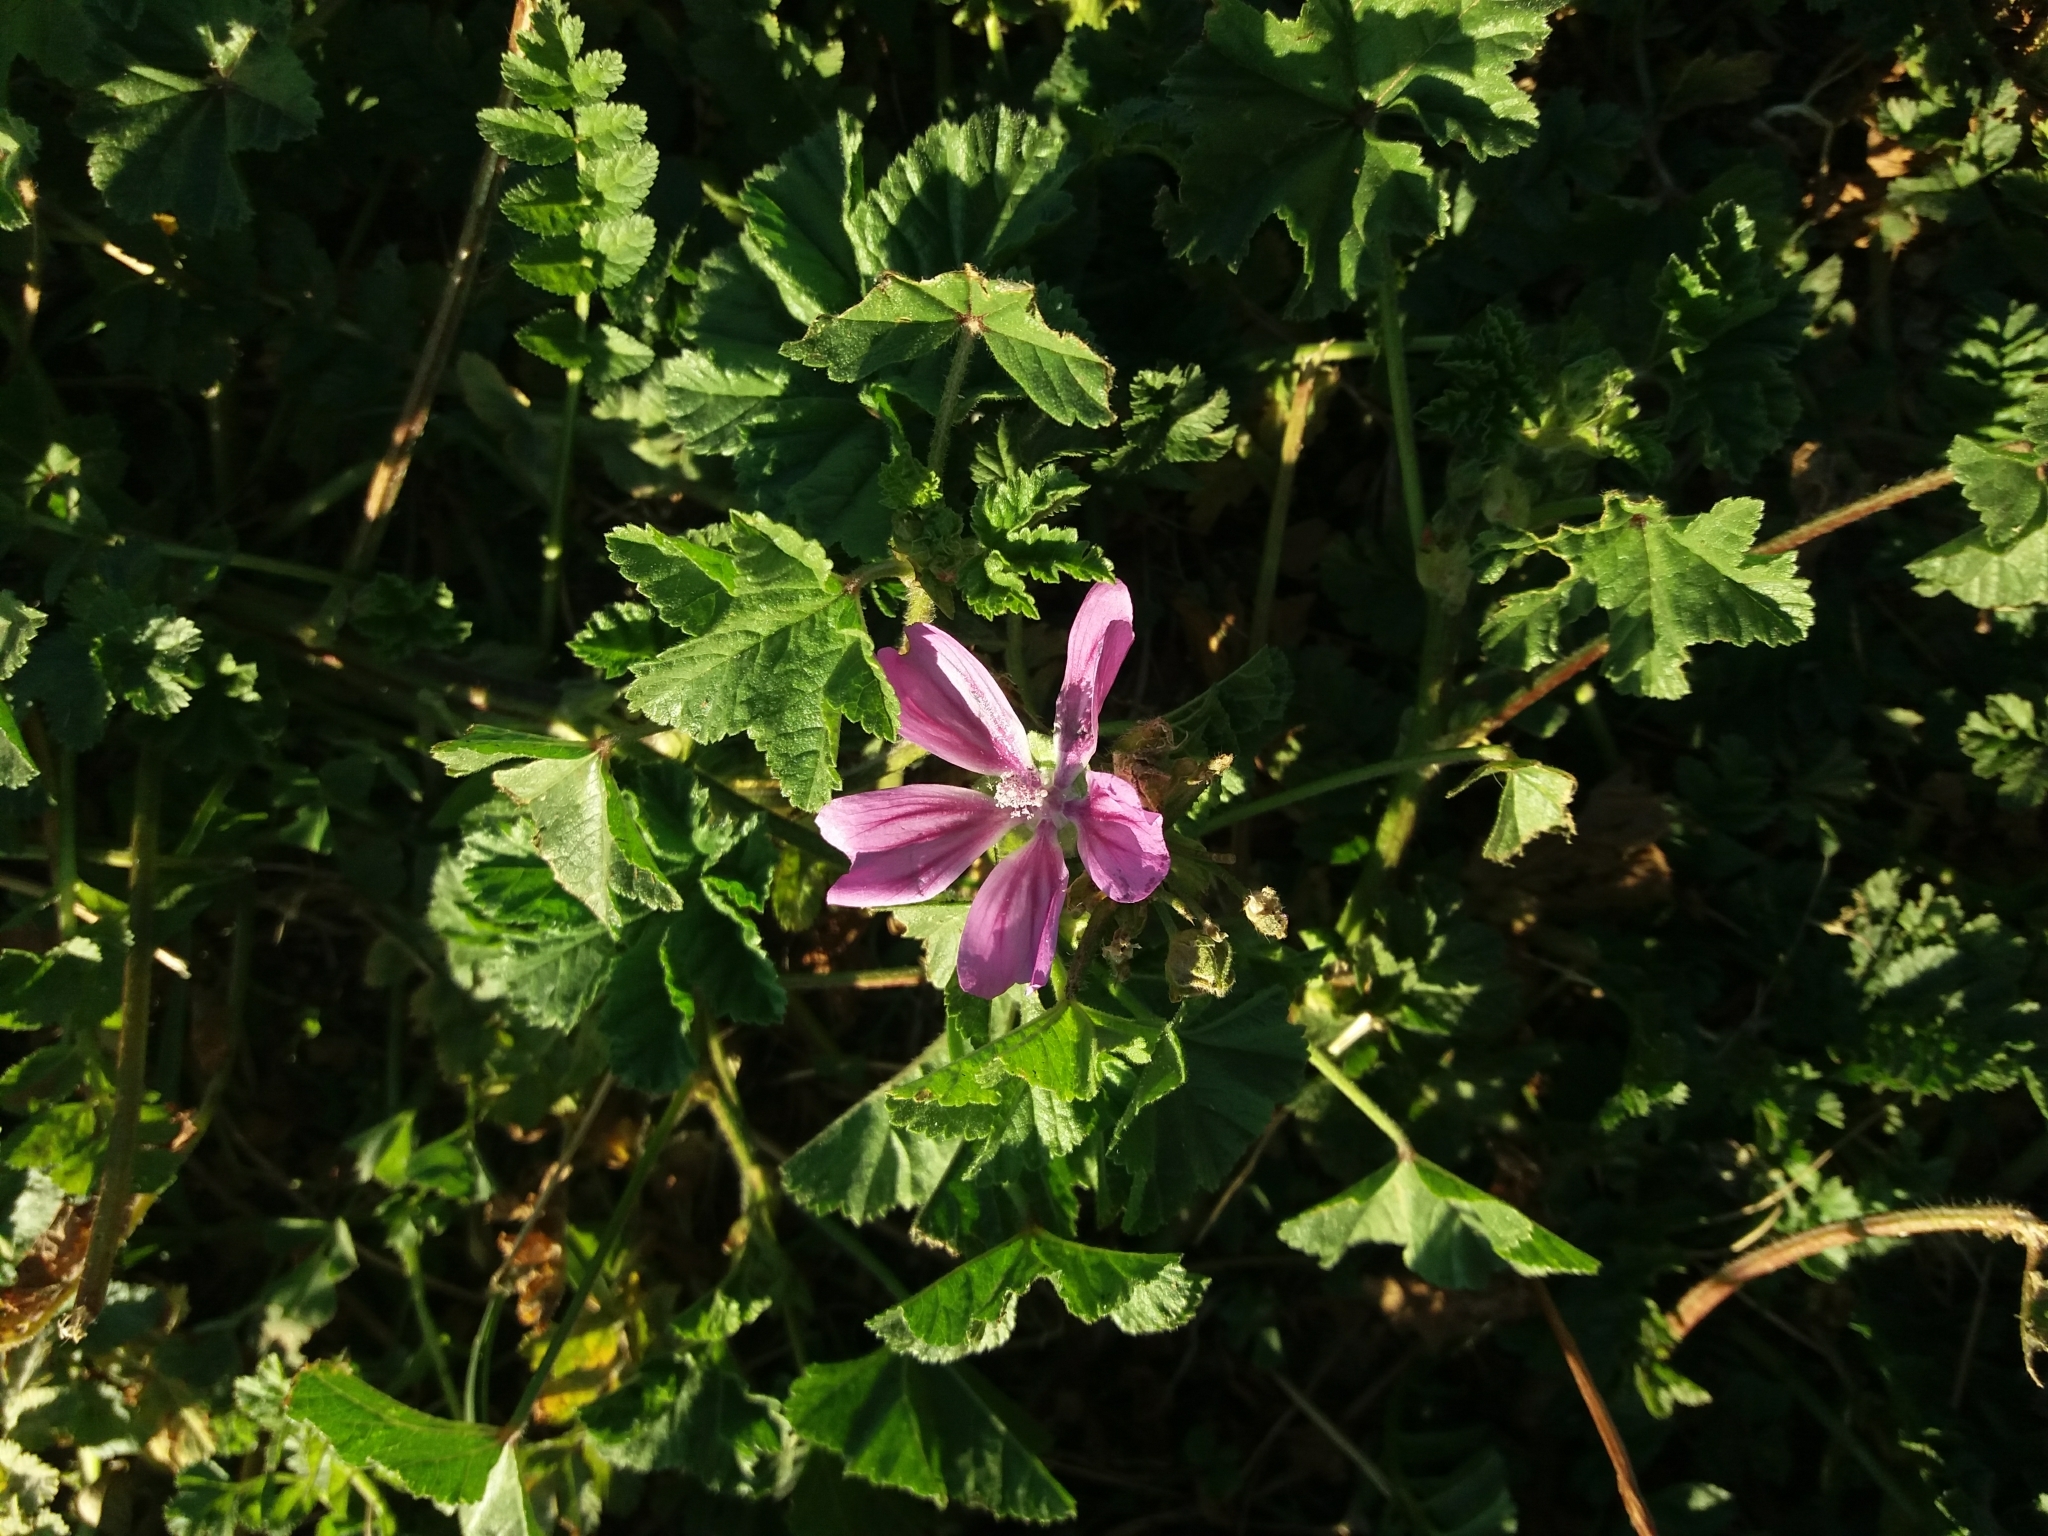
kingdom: Plantae
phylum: Tracheophyta
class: Magnoliopsida
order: Malvales
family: Malvaceae
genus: Malva
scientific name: Malva sylvestris
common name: Common mallow
